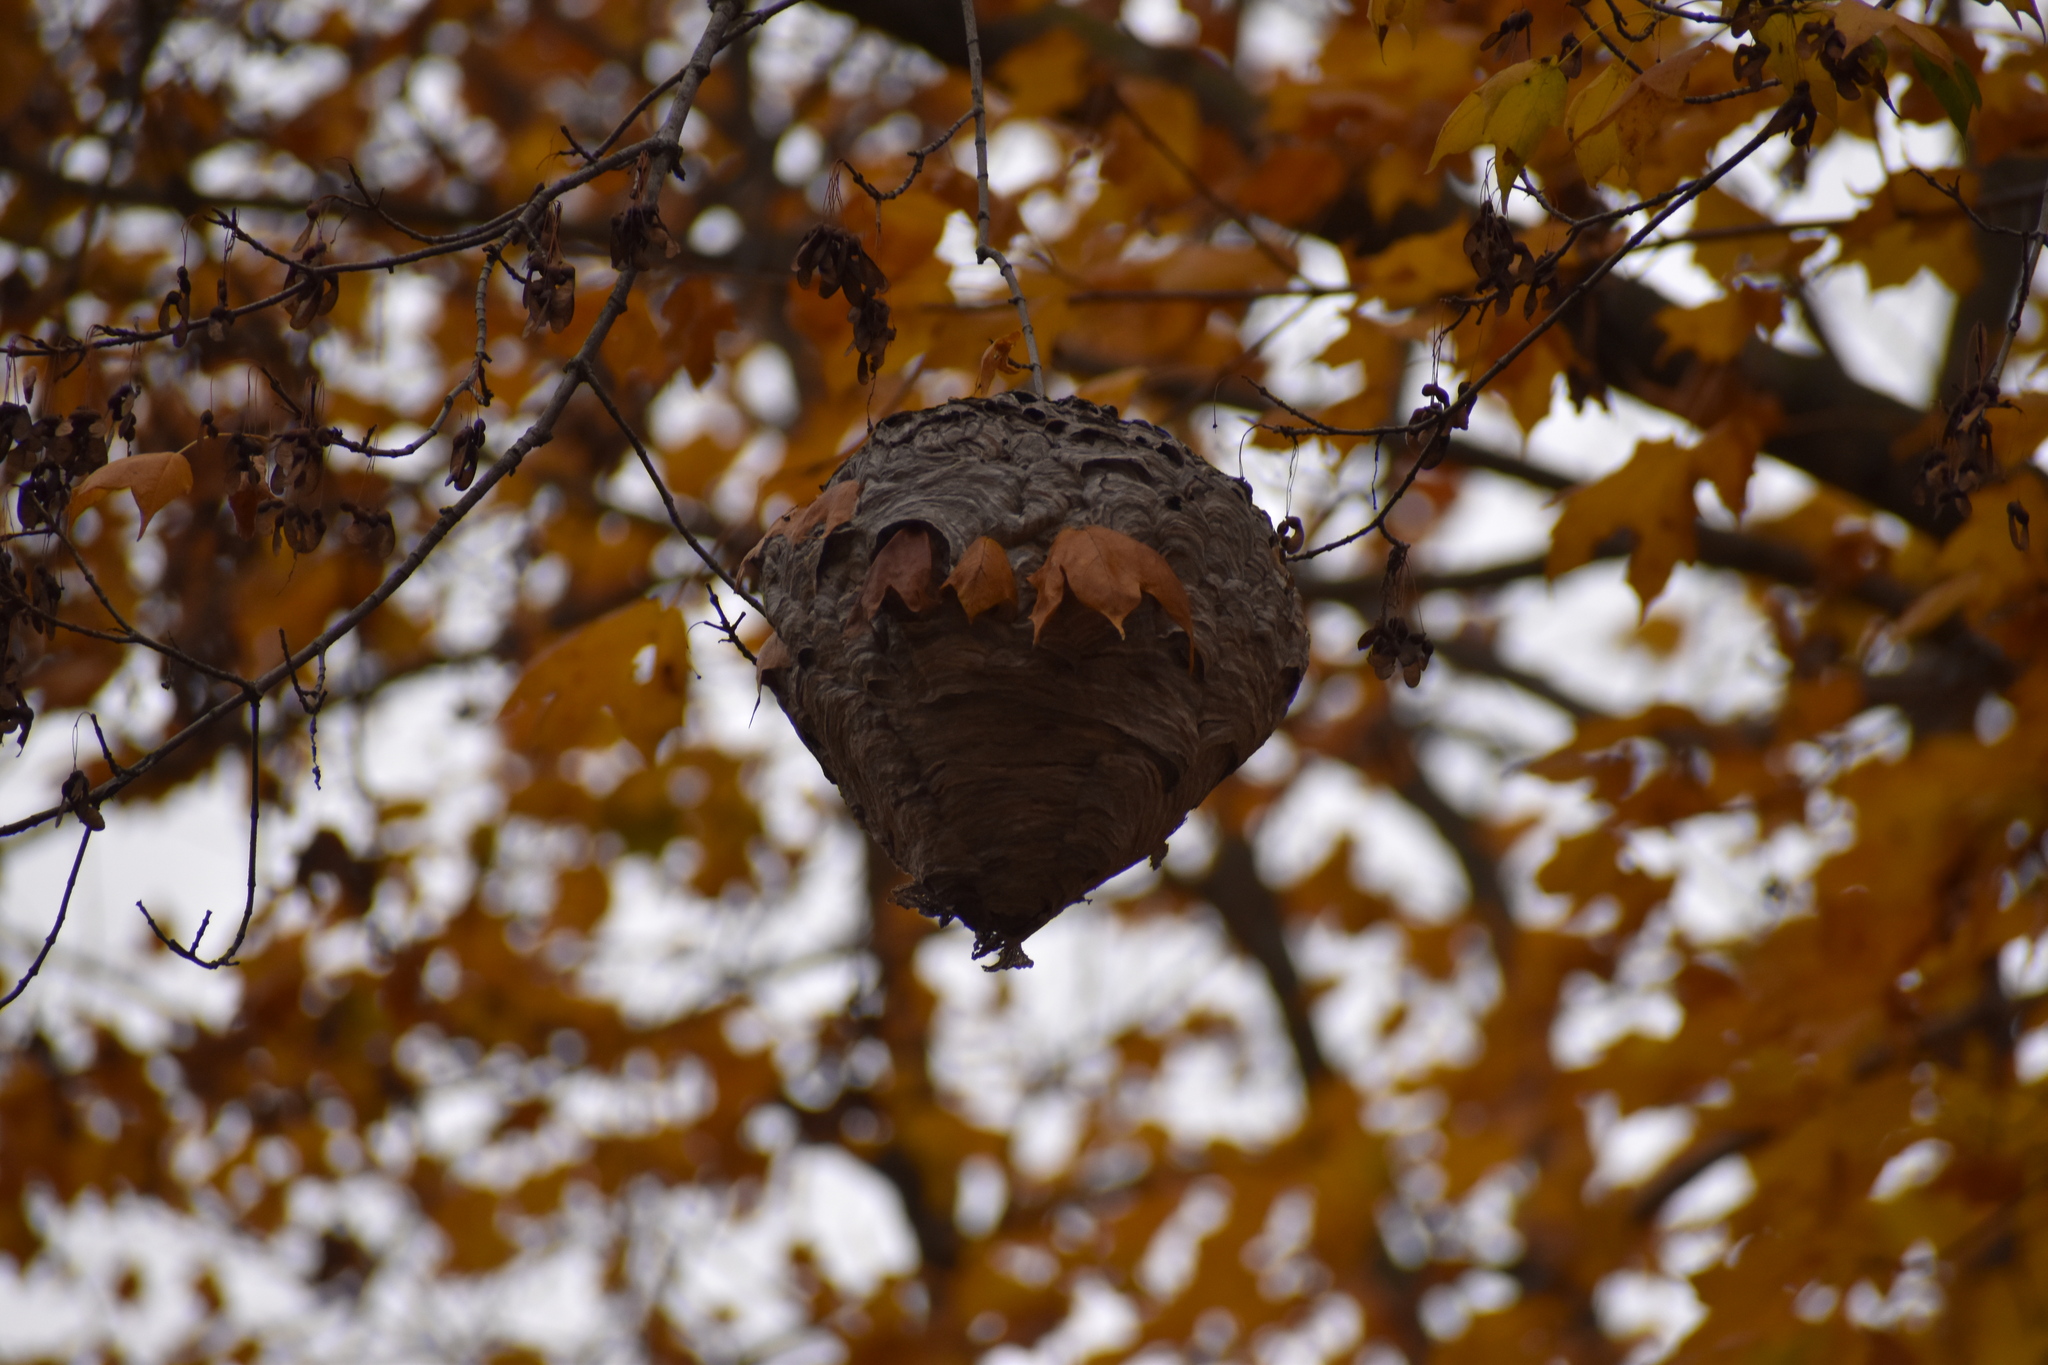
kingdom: Animalia
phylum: Arthropoda
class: Insecta
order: Hymenoptera
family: Vespidae
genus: Dolichovespula
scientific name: Dolichovespula maculata
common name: Bald-faced hornet
